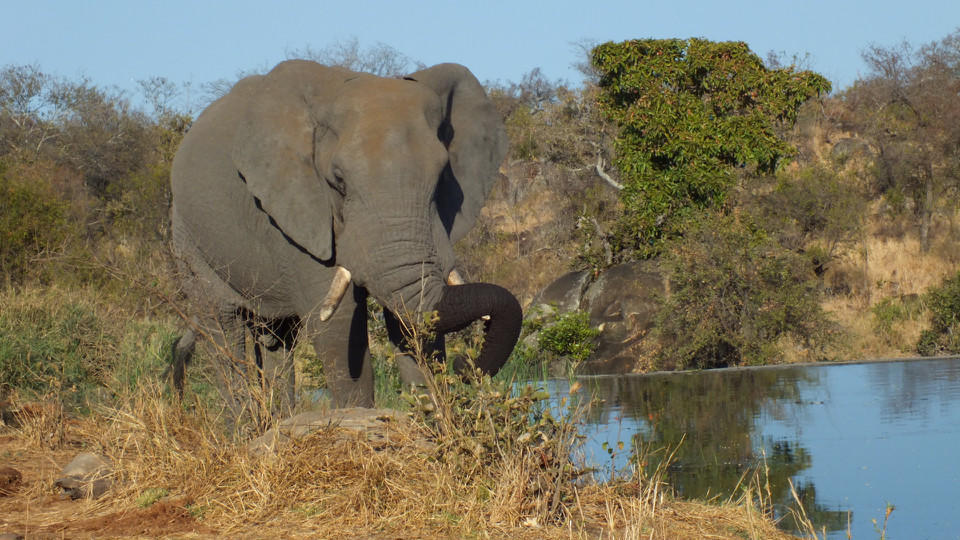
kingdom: Animalia
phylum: Chordata
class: Mammalia
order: Proboscidea
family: Elephantidae
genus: Loxodonta
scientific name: Loxodonta africana
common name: African elephant
